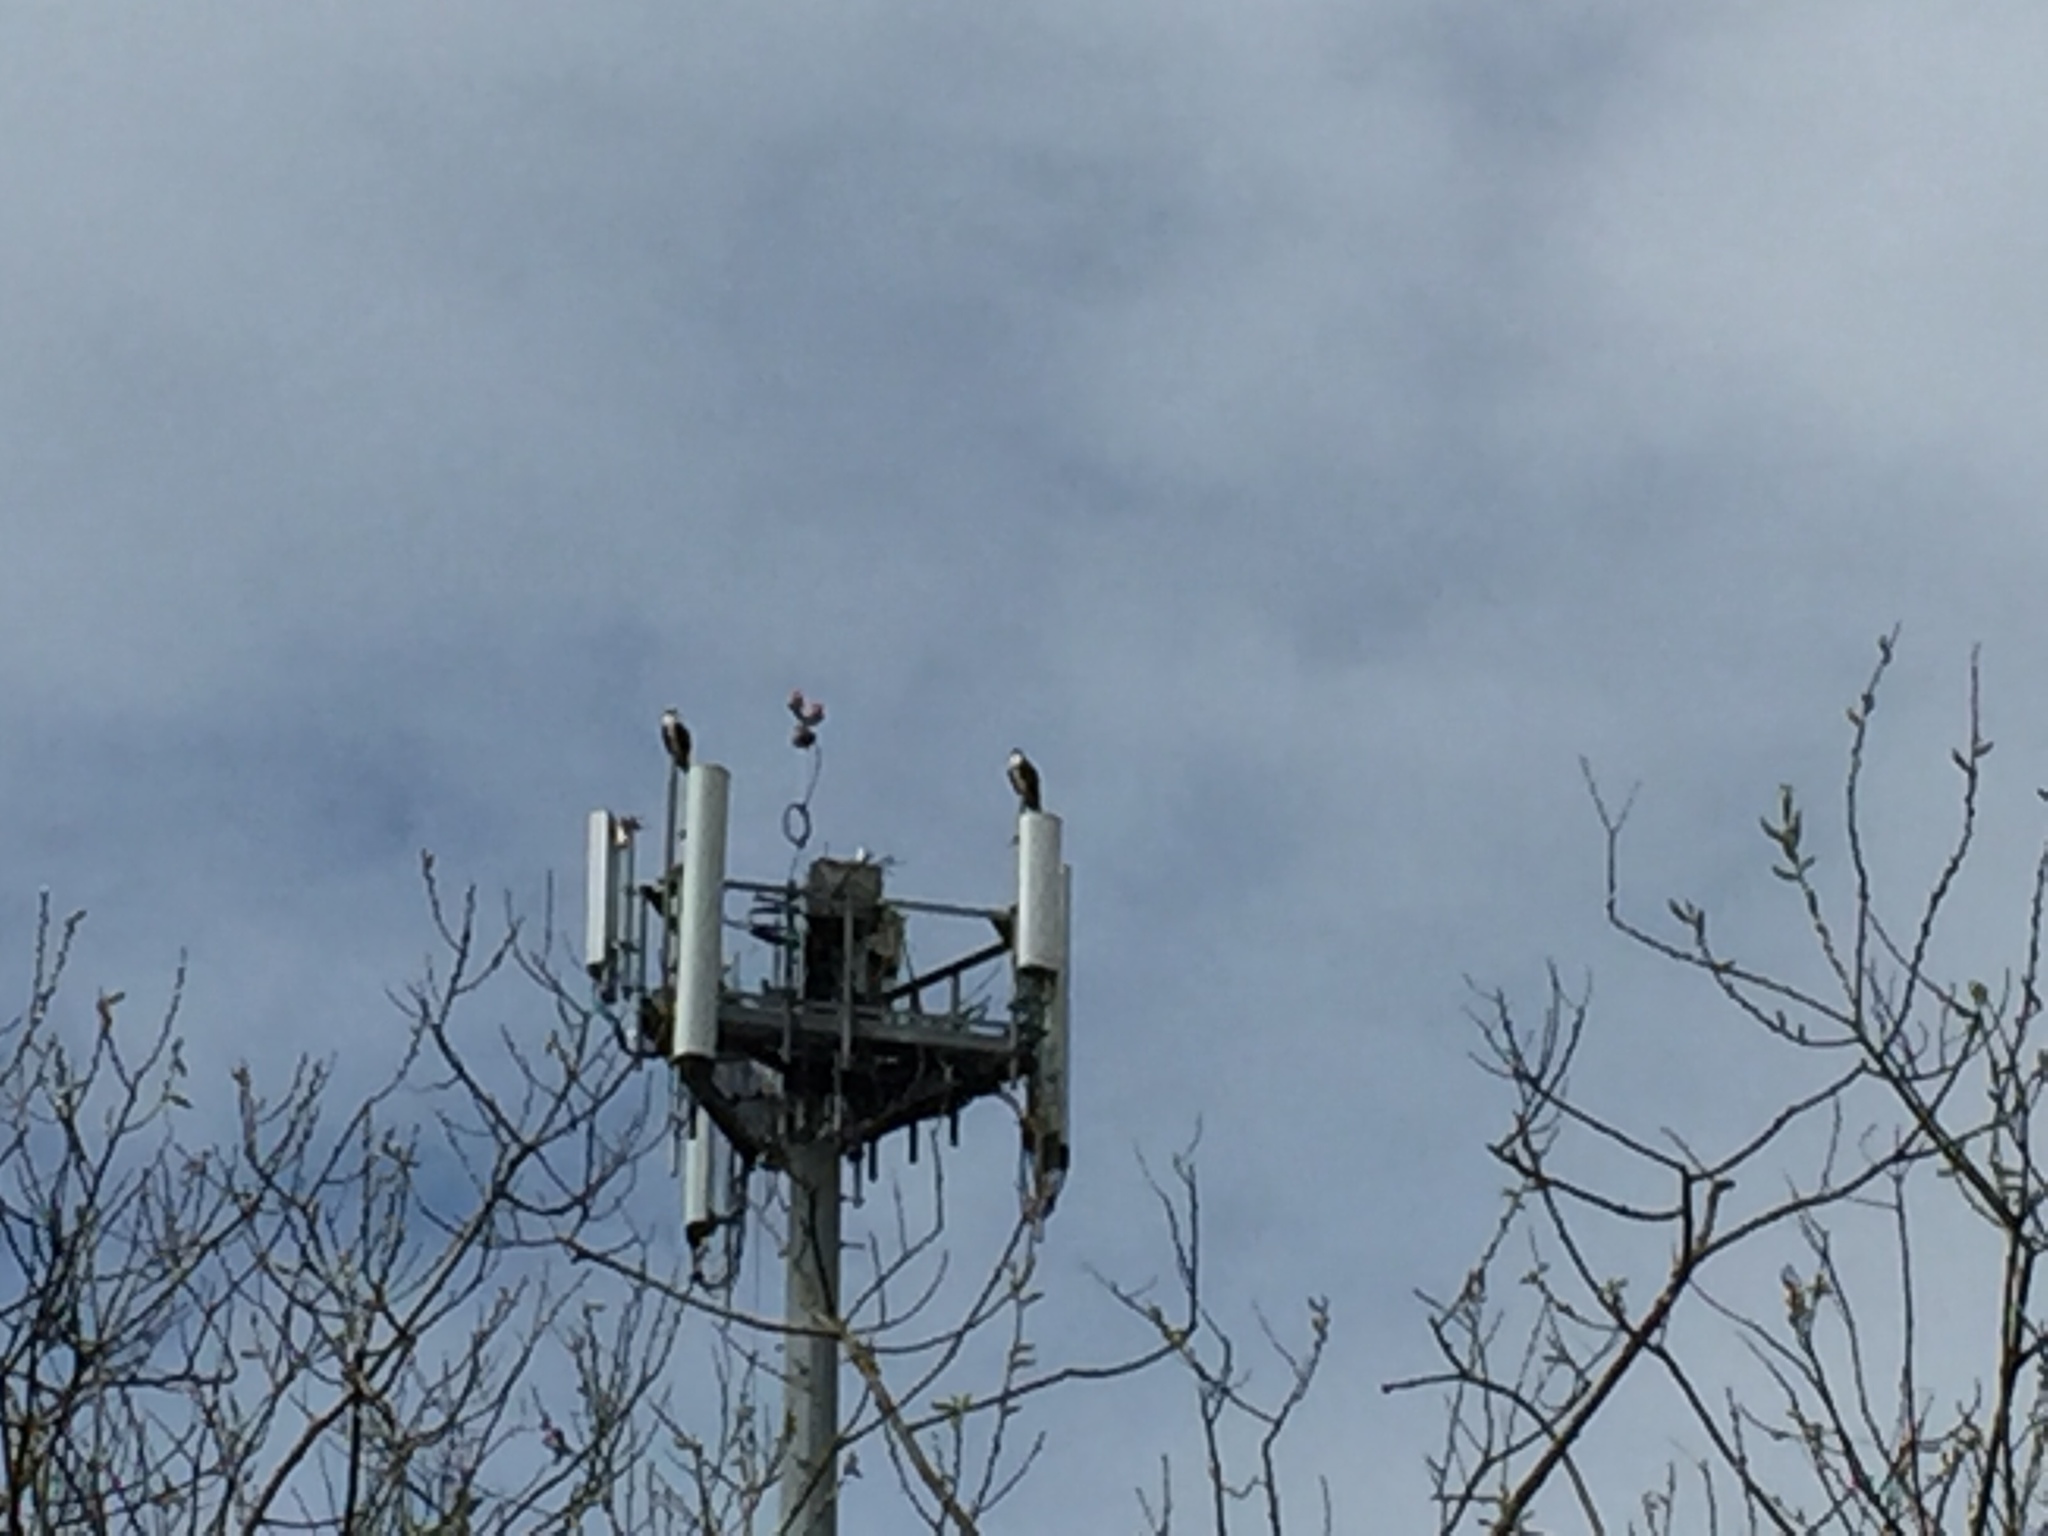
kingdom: Animalia
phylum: Chordata
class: Aves
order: Accipitriformes
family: Pandionidae
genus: Pandion
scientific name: Pandion haliaetus
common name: Osprey
